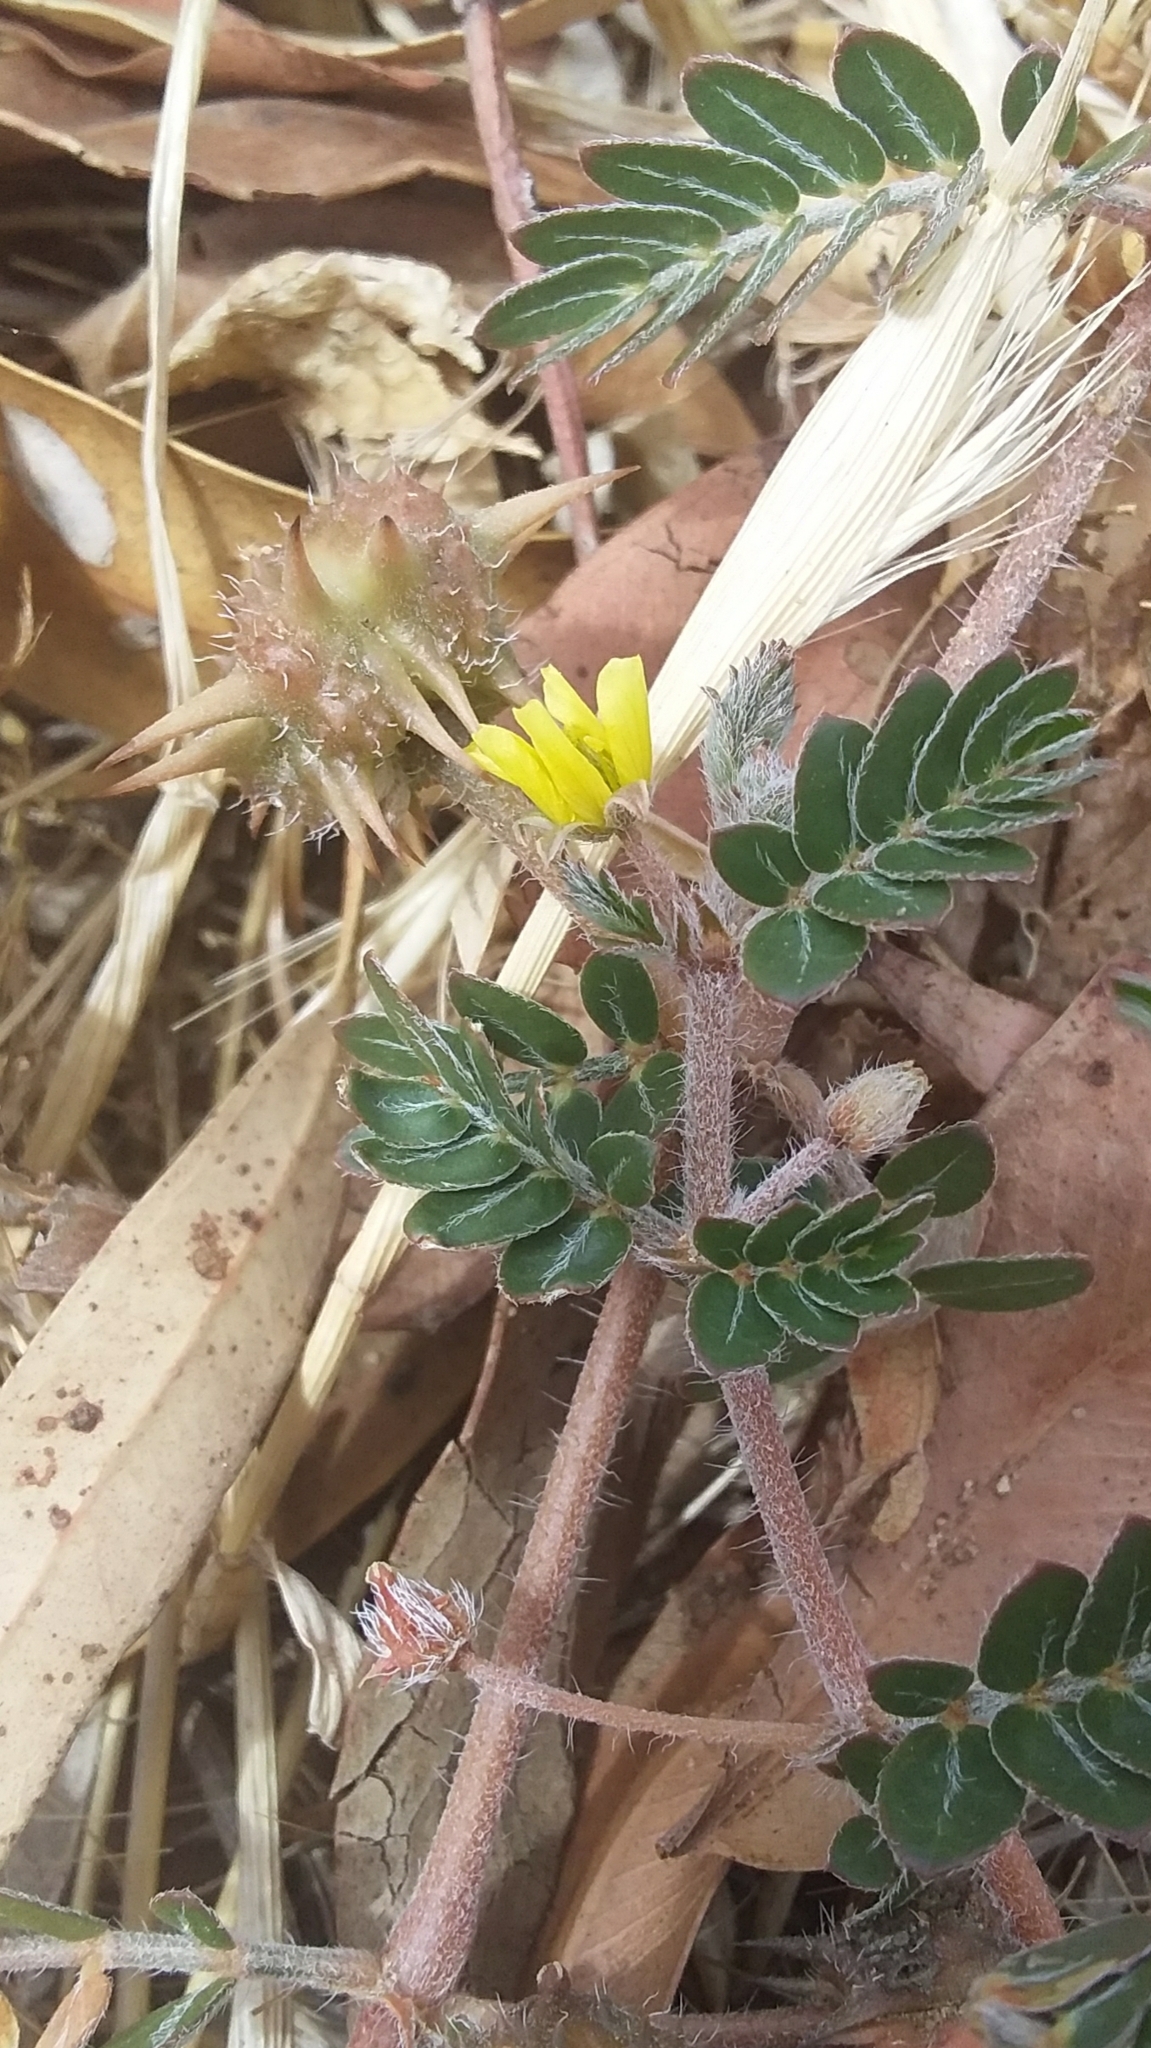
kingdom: Plantae
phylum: Tracheophyta
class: Magnoliopsida
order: Zygophyllales
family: Zygophyllaceae
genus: Tribulus
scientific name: Tribulus terrestris
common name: Puncturevine
